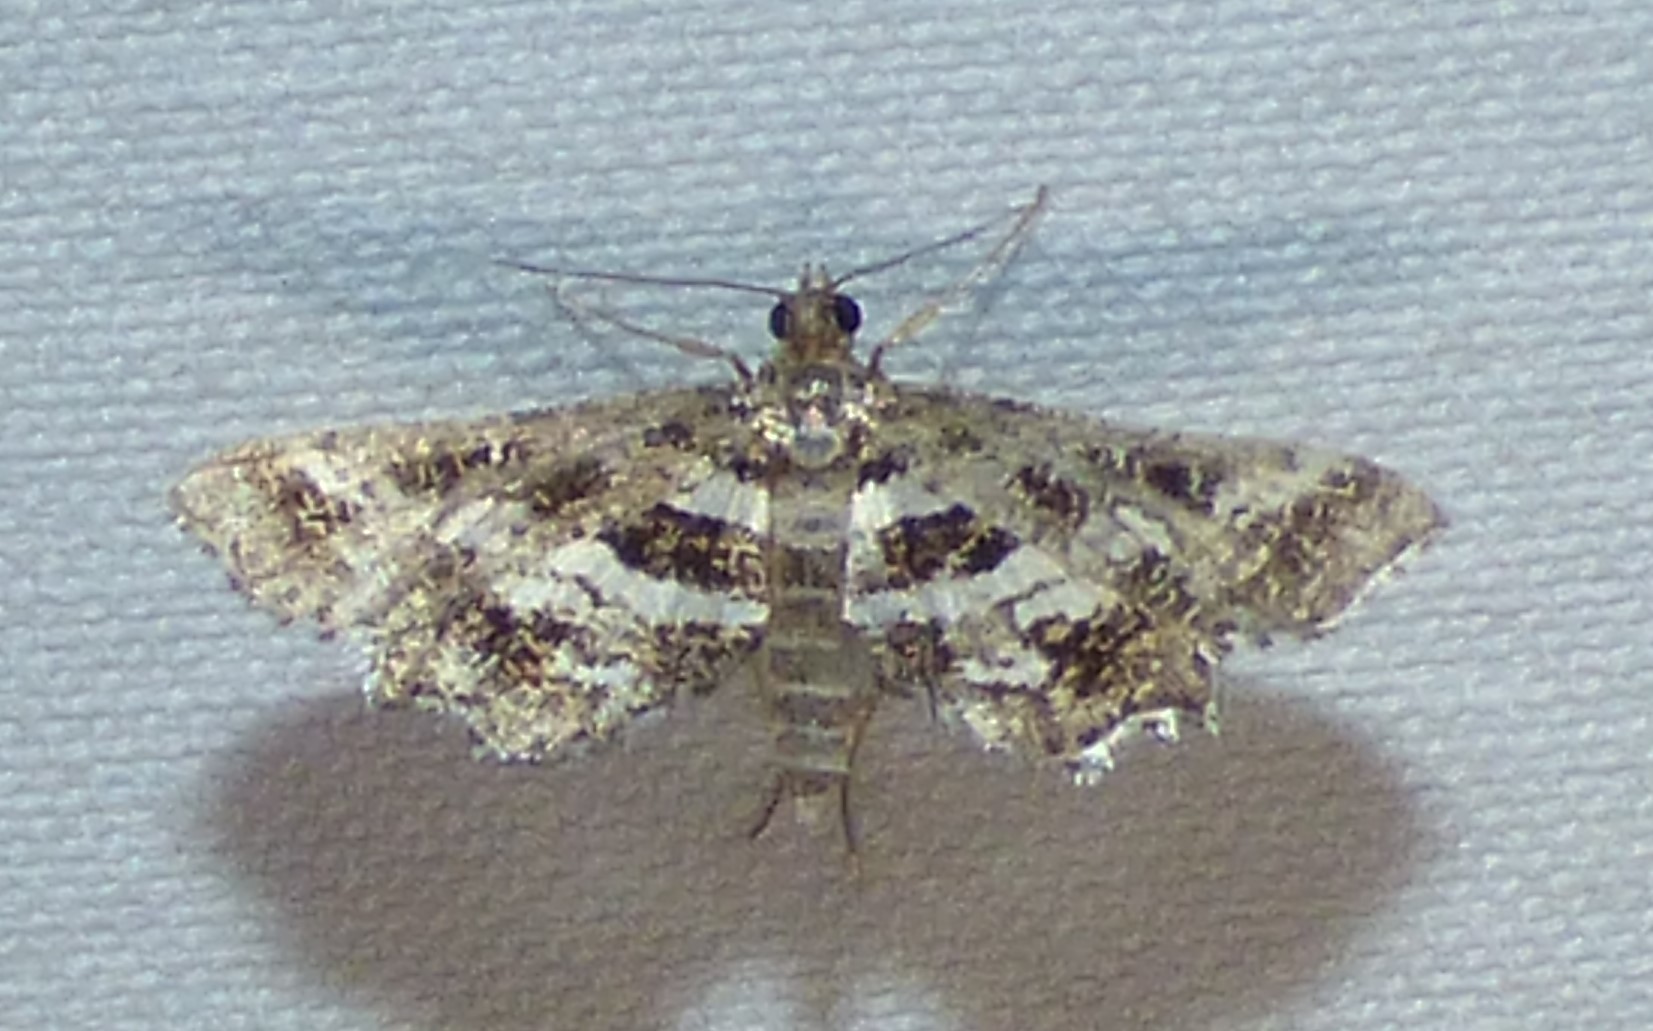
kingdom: Animalia
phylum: Arthropoda
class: Insecta
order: Lepidoptera
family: Crambidae
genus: Diasemiopsis
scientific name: Diasemiopsis ramburialis
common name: Vagrant china-mark
